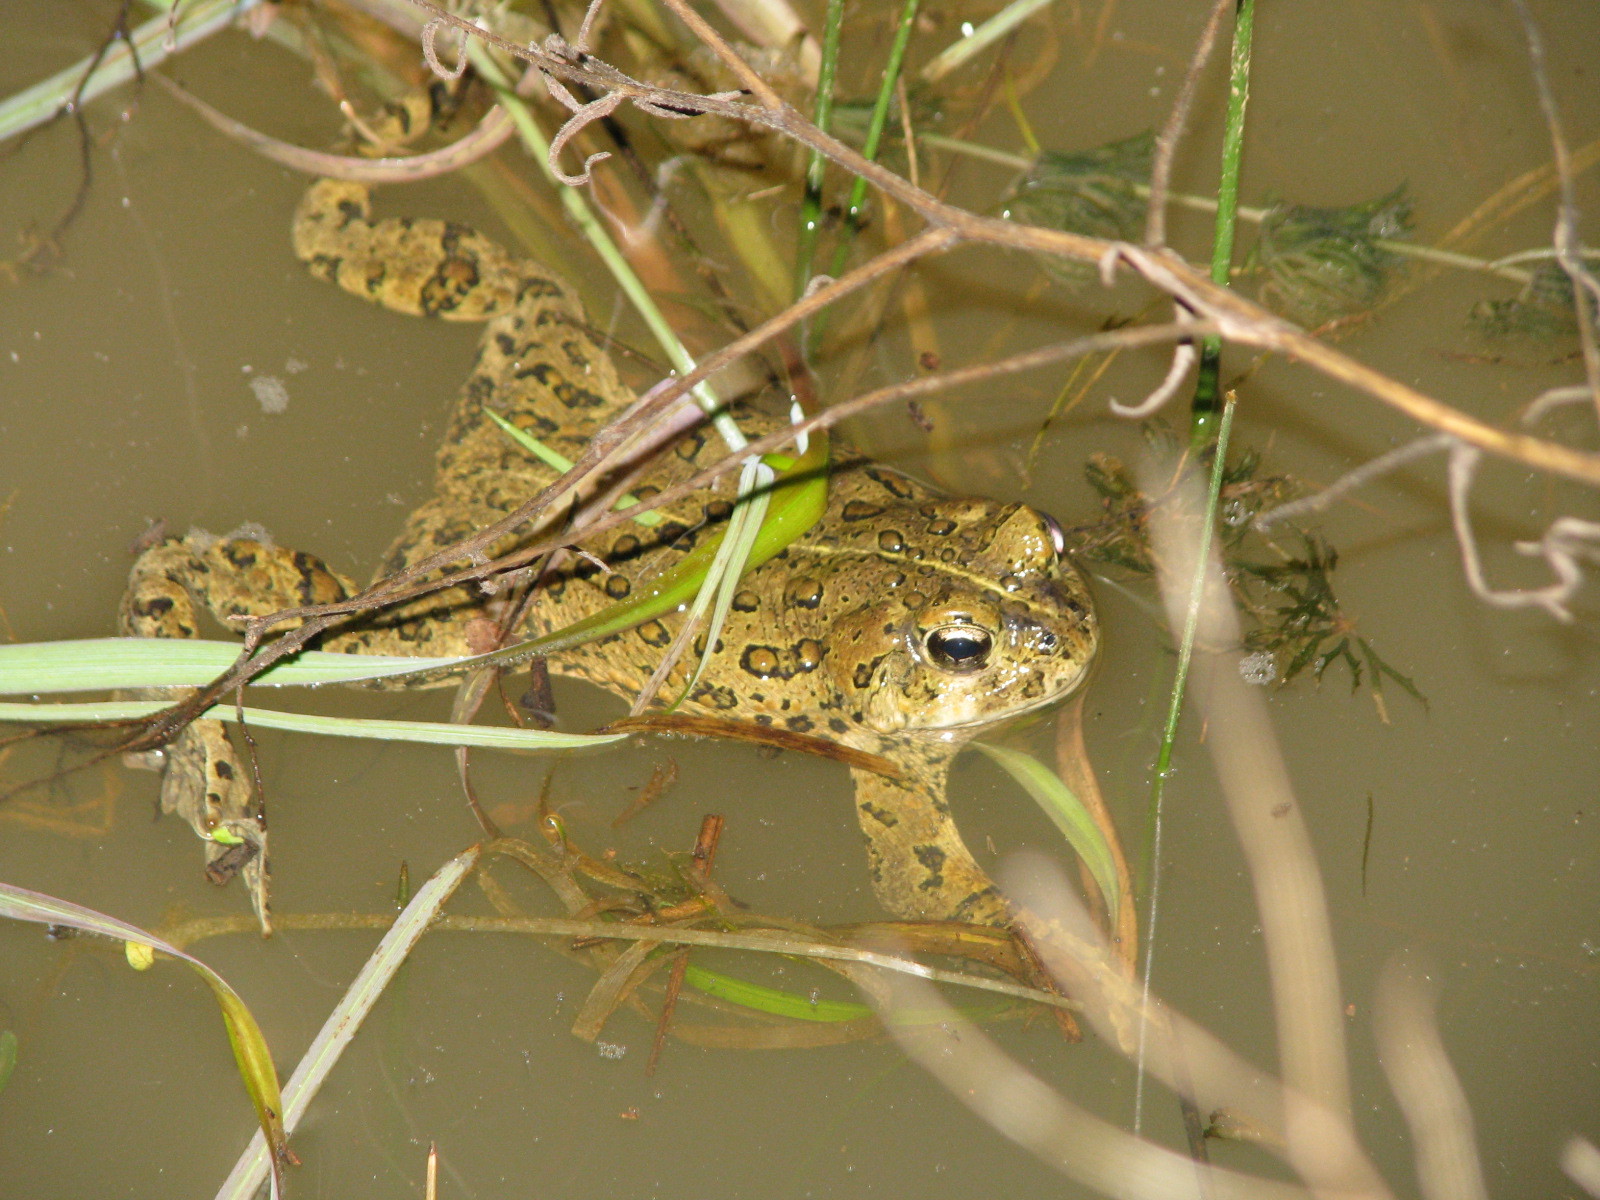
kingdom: Animalia
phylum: Chordata
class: Amphibia
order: Anura
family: Bufonidae
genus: Anaxyrus
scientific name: Anaxyrus boreas
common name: Western toad
